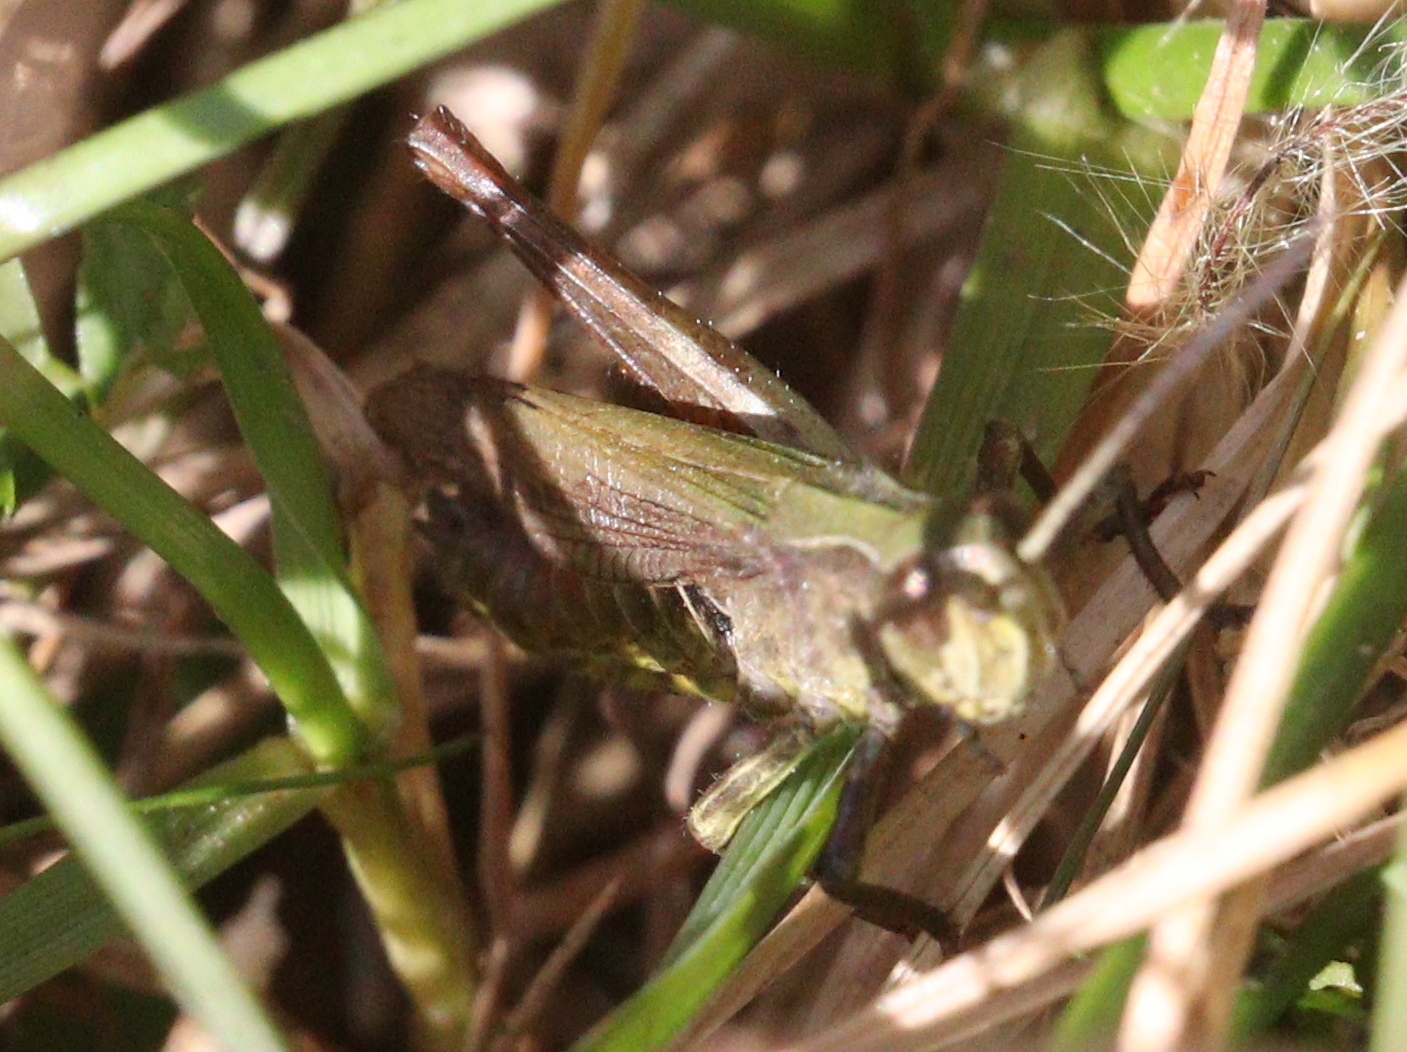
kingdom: Animalia
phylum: Arthropoda
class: Insecta
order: Orthoptera
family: Acrididae
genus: Chorthippus
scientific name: Chorthippus dorsatus
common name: Steppe grasshopper
